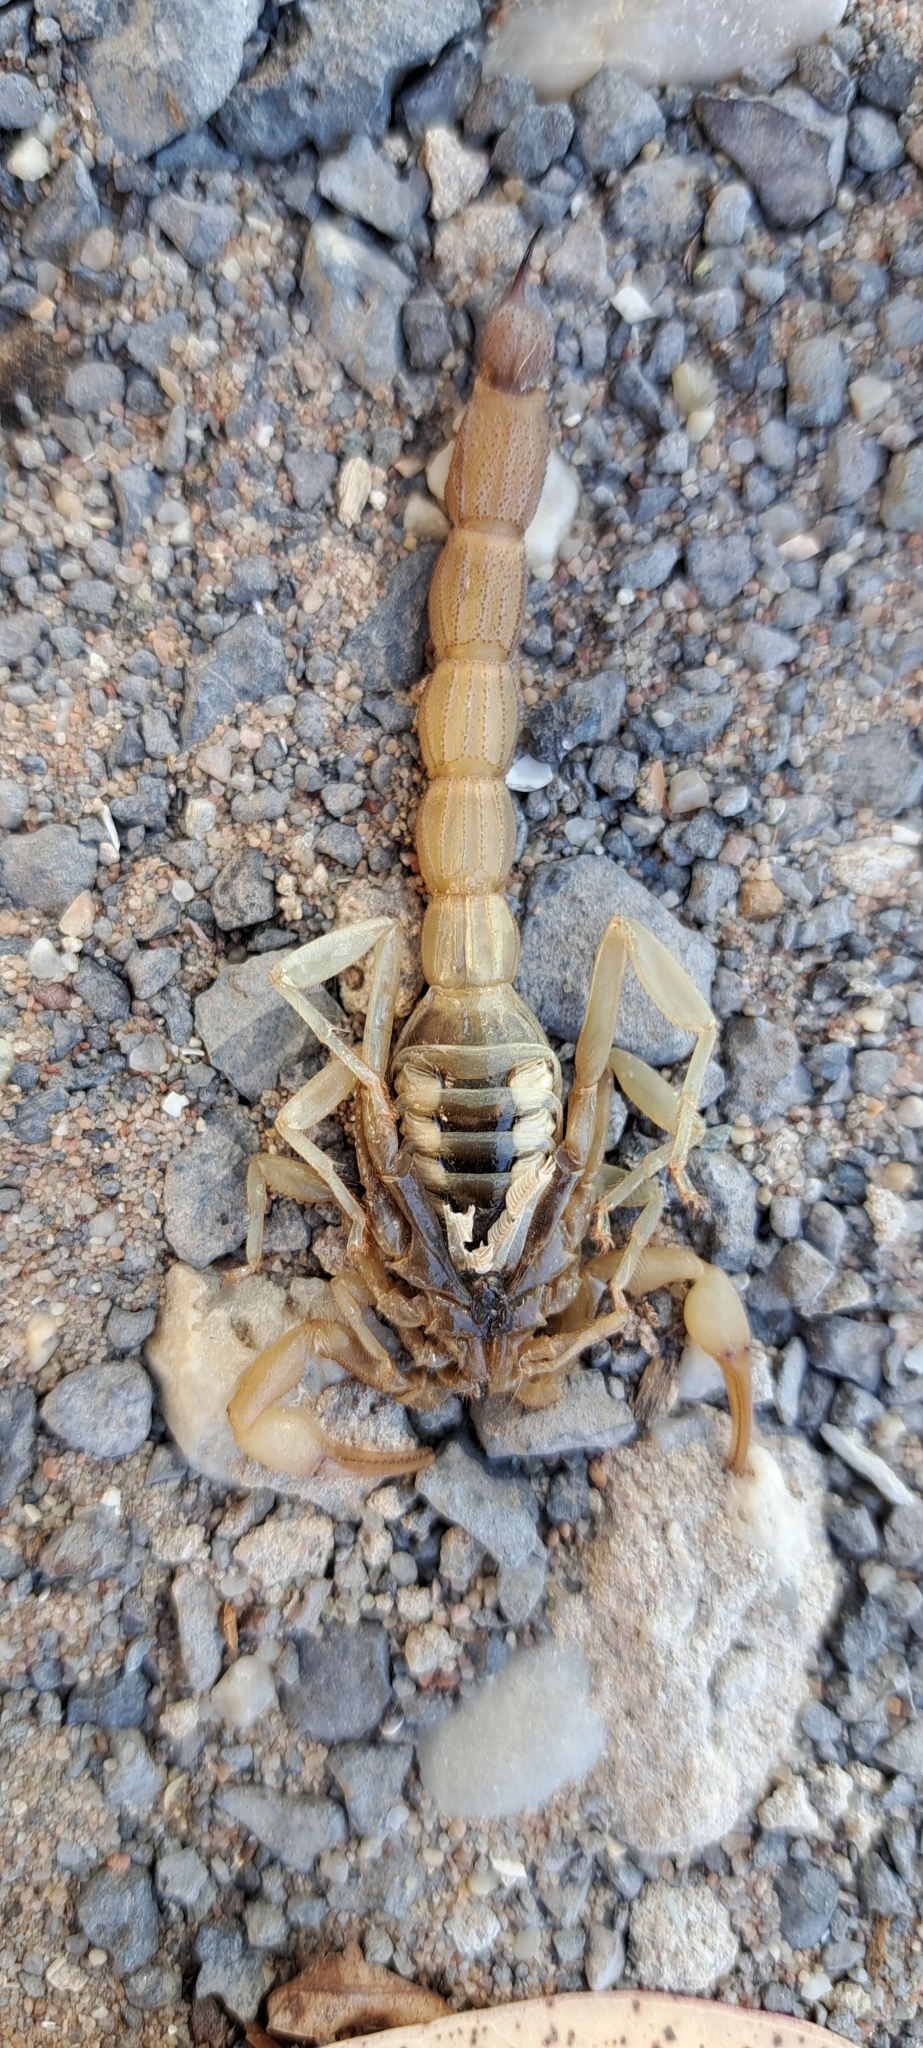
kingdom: Animalia
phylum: Arthropoda
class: Arachnida
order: Scorpiones
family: Buthidae
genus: Parabuthus
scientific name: Parabuthus capensis
